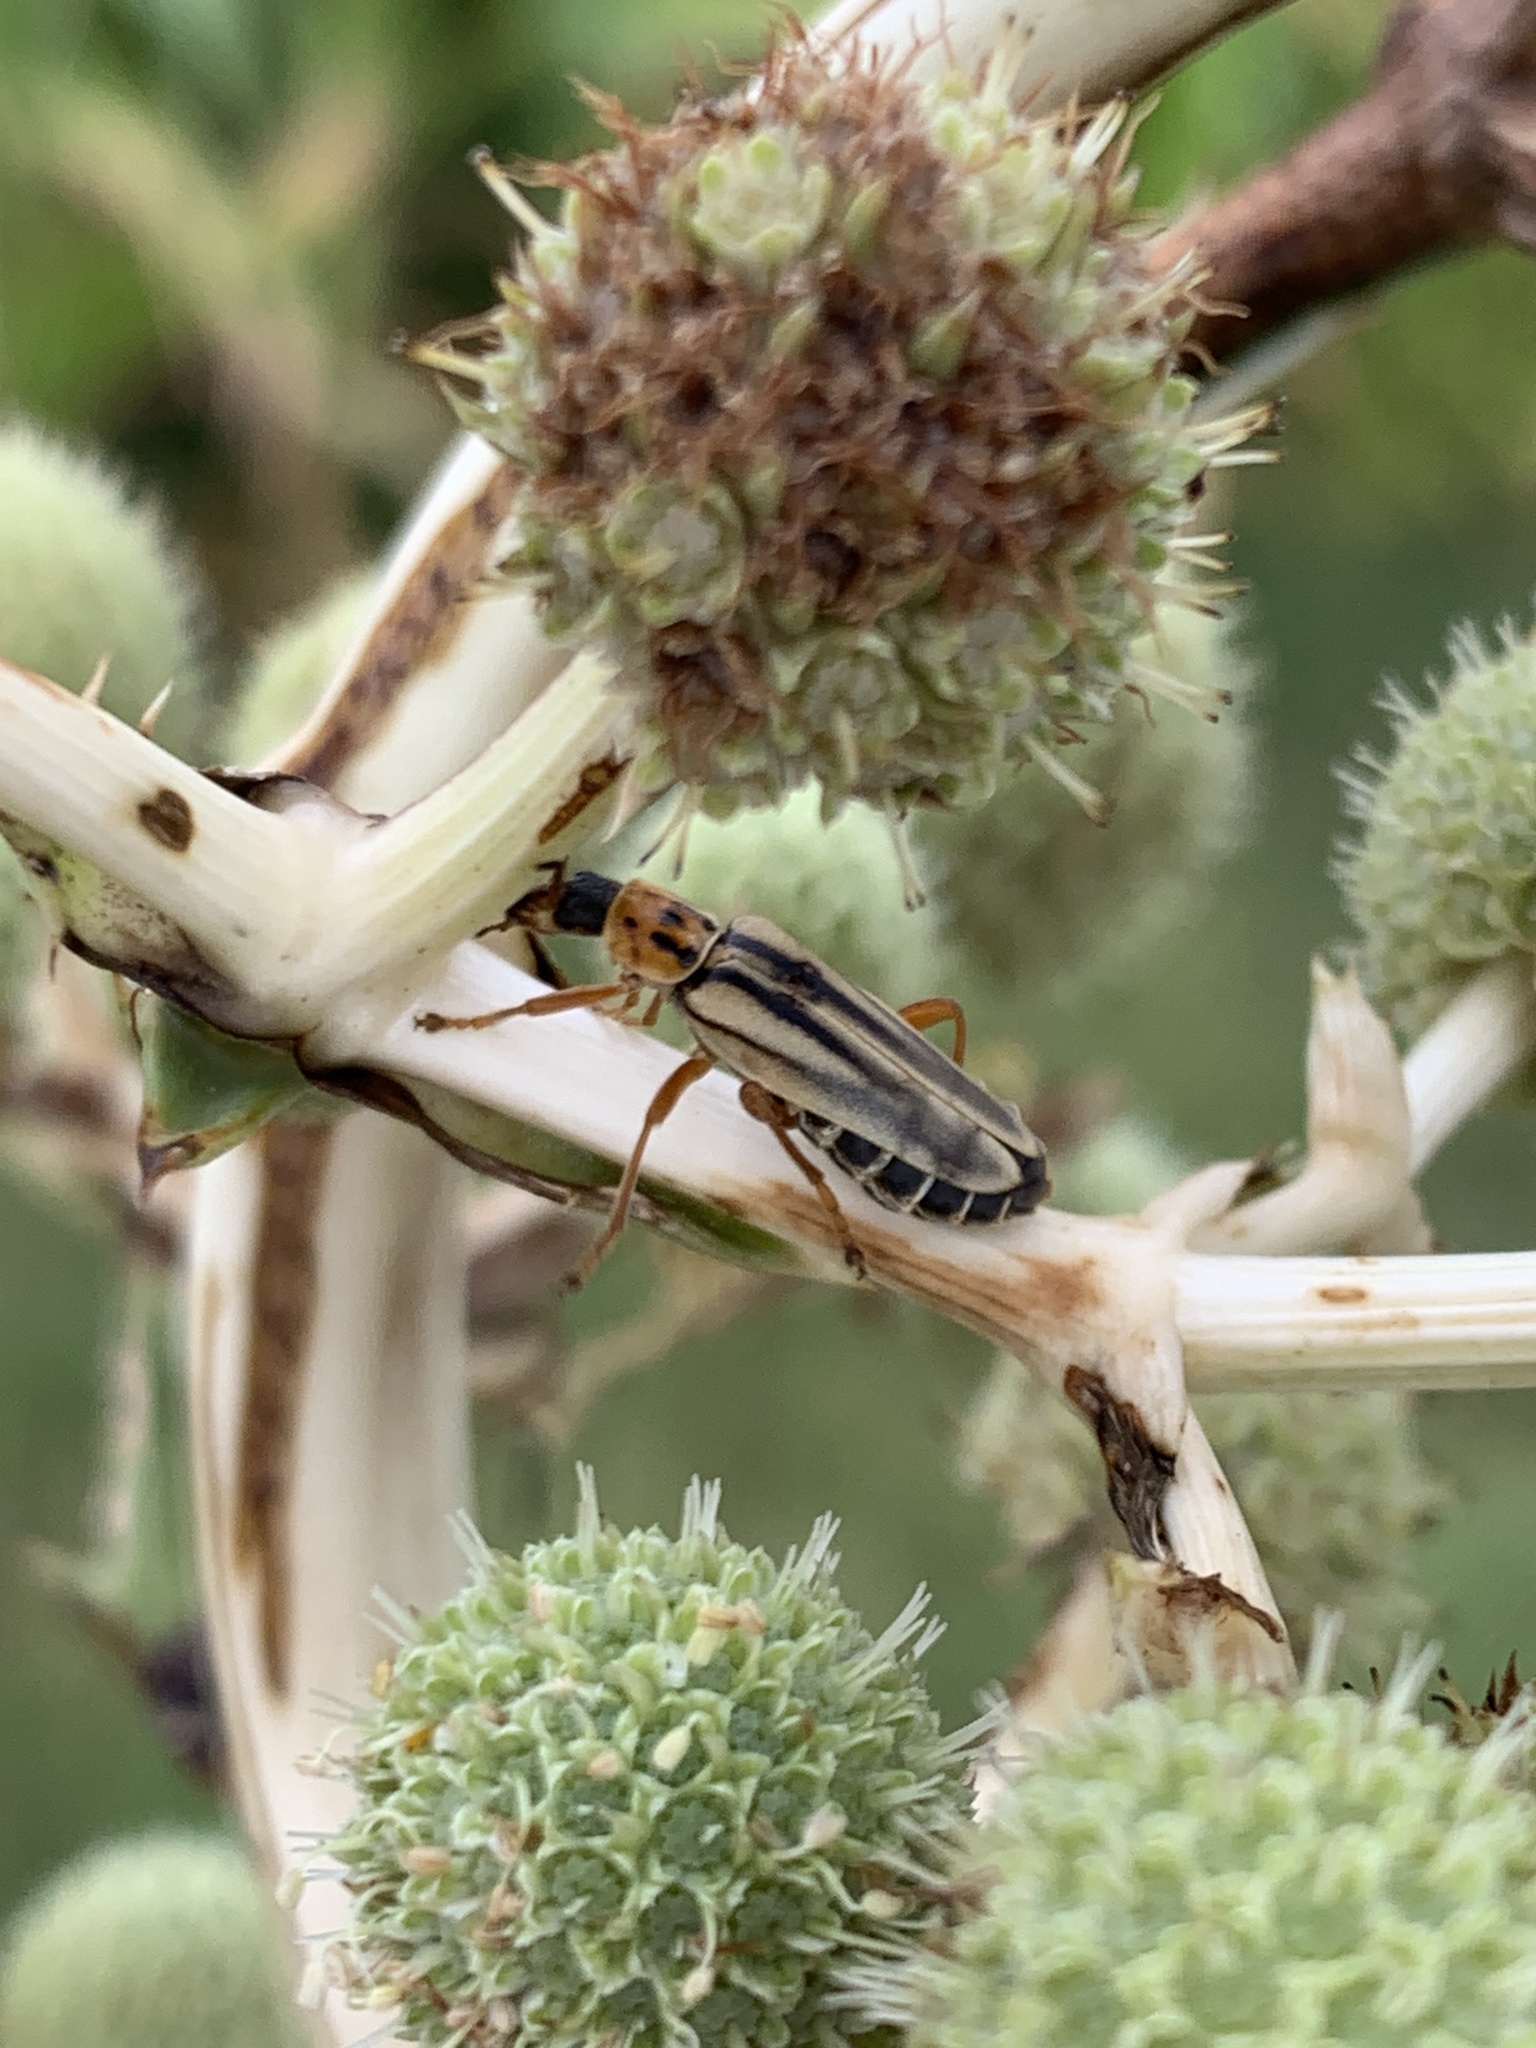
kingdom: Animalia
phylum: Arthropoda
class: Insecta
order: Coleoptera
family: Cantharidae
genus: Chauliognathus
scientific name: Chauliognathus
